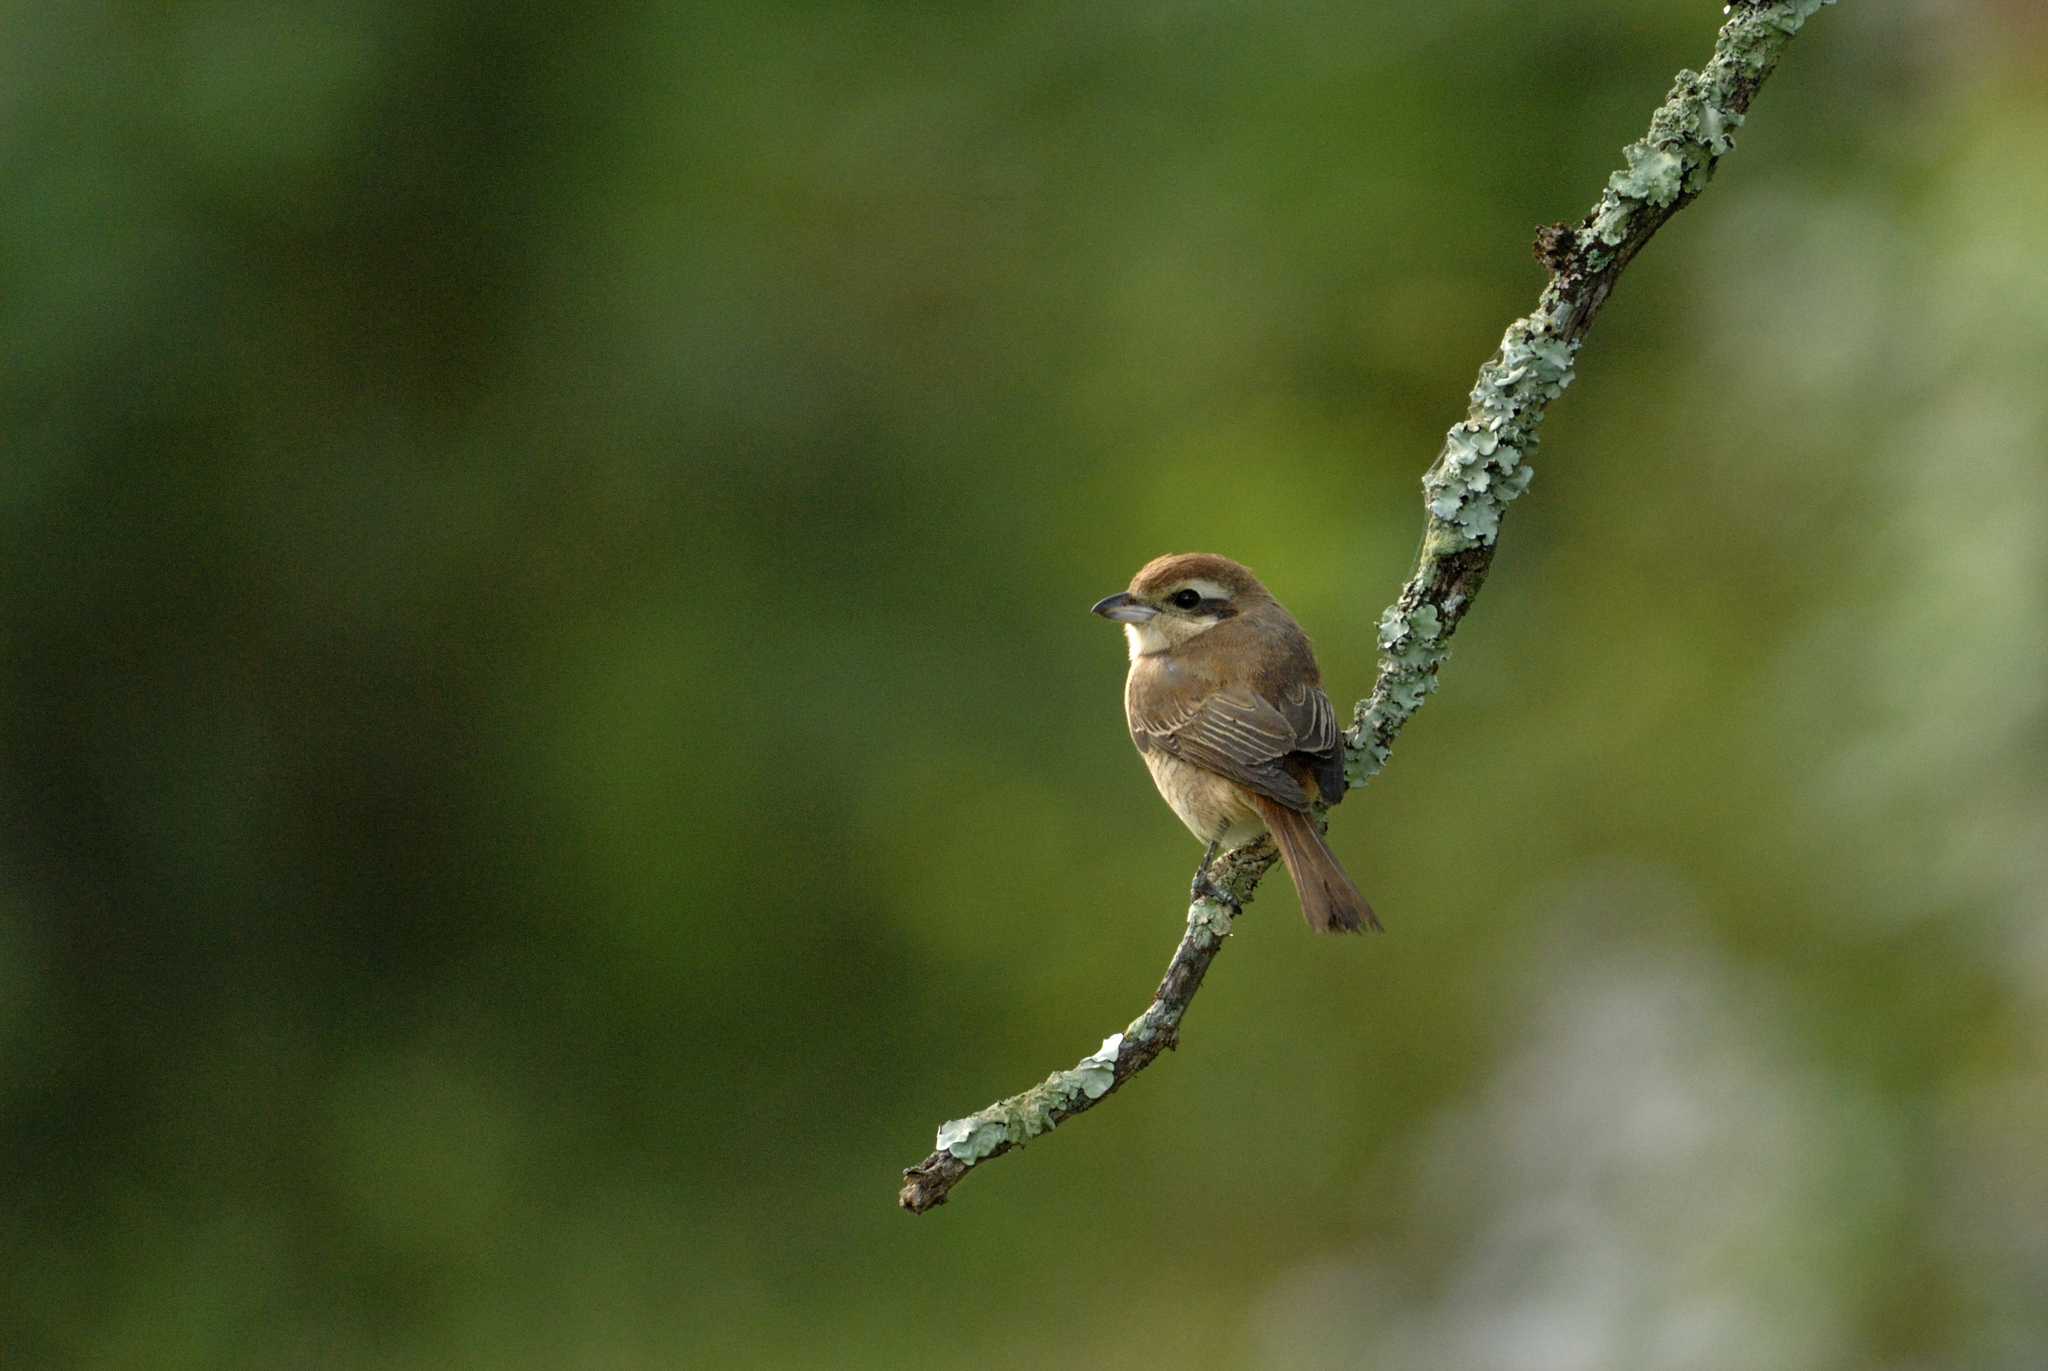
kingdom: Animalia
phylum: Chordata
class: Aves
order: Passeriformes
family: Laniidae
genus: Lanius
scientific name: Lanius cristatus
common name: Brown shrike
